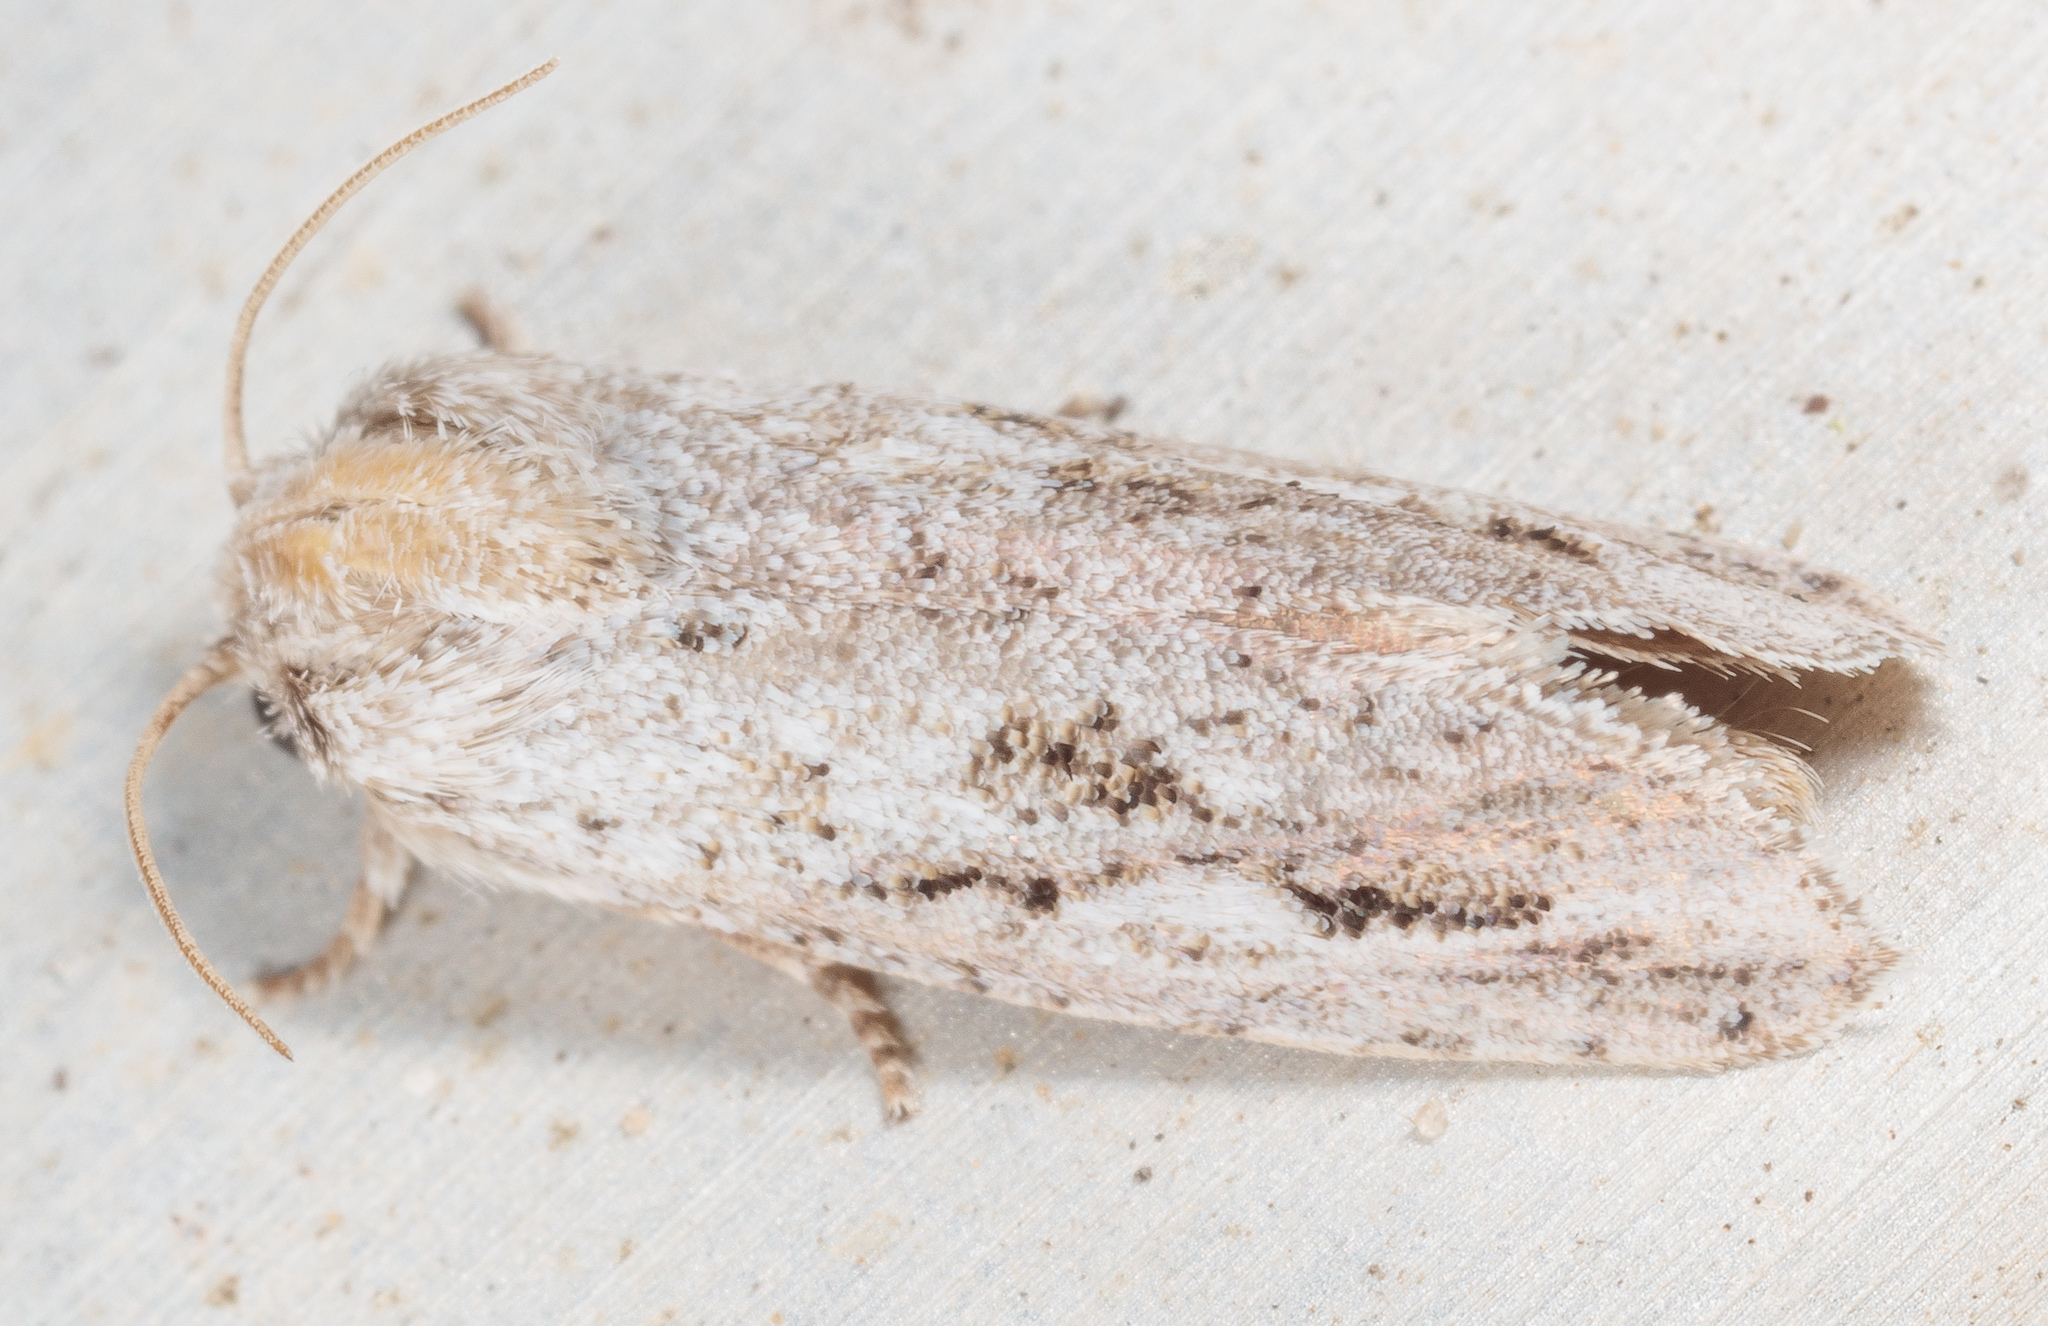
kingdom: Animalia
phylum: Arthropoda
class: Insecta
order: Lepidoptera
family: Tineidae
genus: Acrolophus
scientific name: Acrolophus griseus
